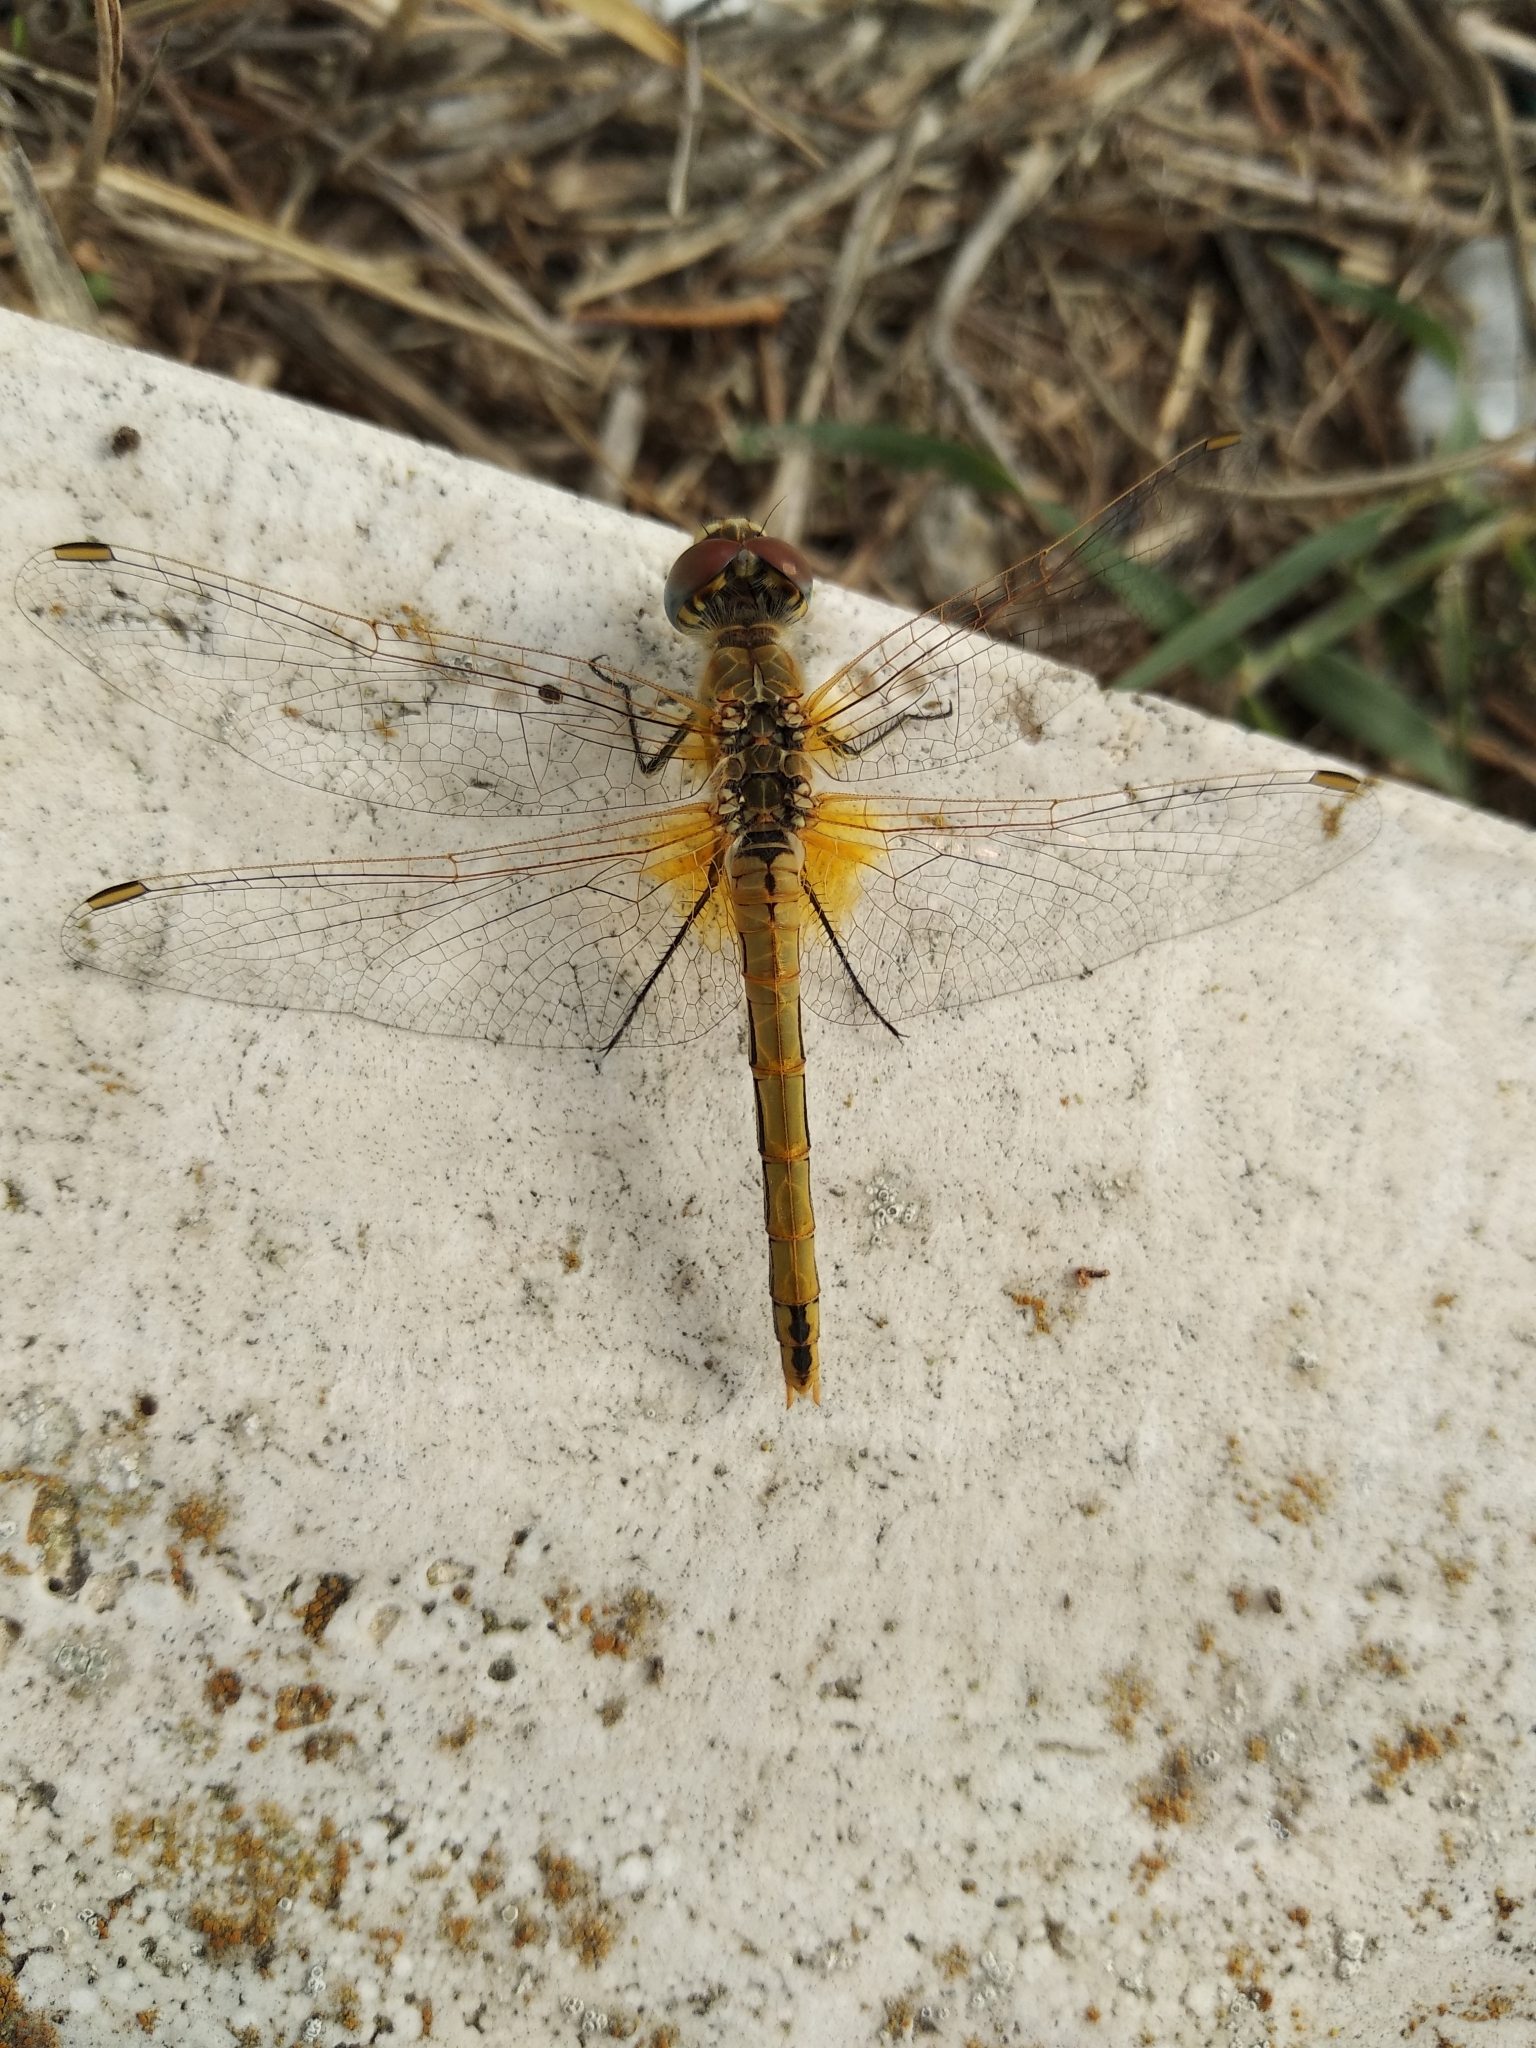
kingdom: Animalia
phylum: Arthropoda
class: Insecta
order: Odonata
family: Libellulidae
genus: Sympetrum
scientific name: Sympetrum fonscolombii
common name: Red-veined darter
